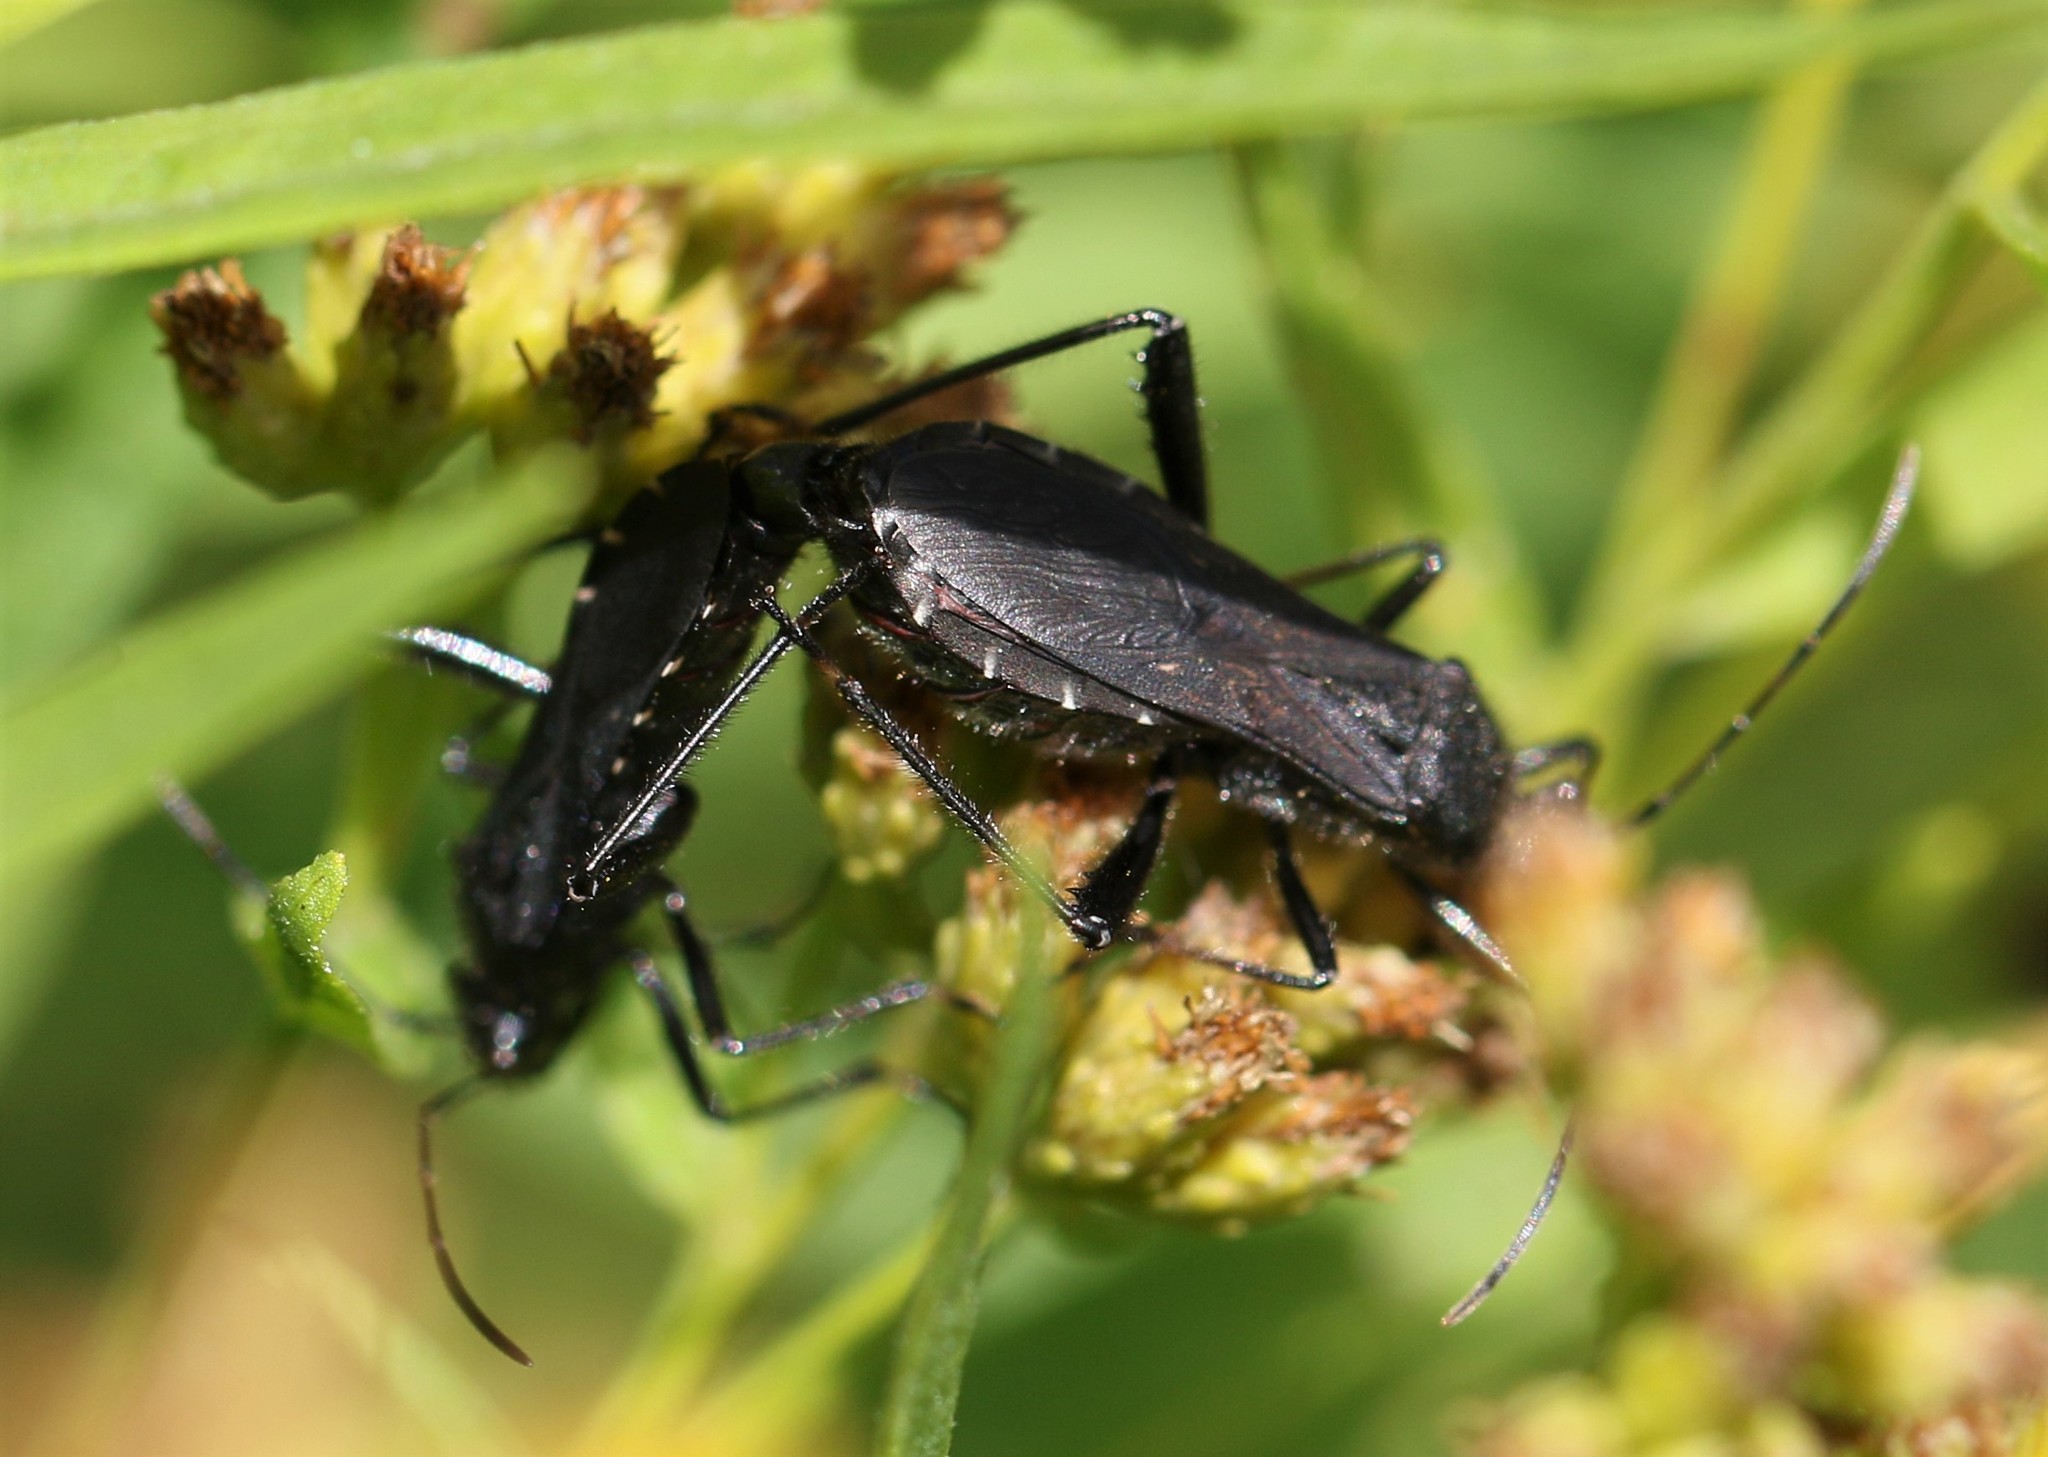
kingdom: Animalia
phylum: Arthropoda
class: Insecta
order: Hemiptera
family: Alydidae
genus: Alydus
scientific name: Alydus eurinus
